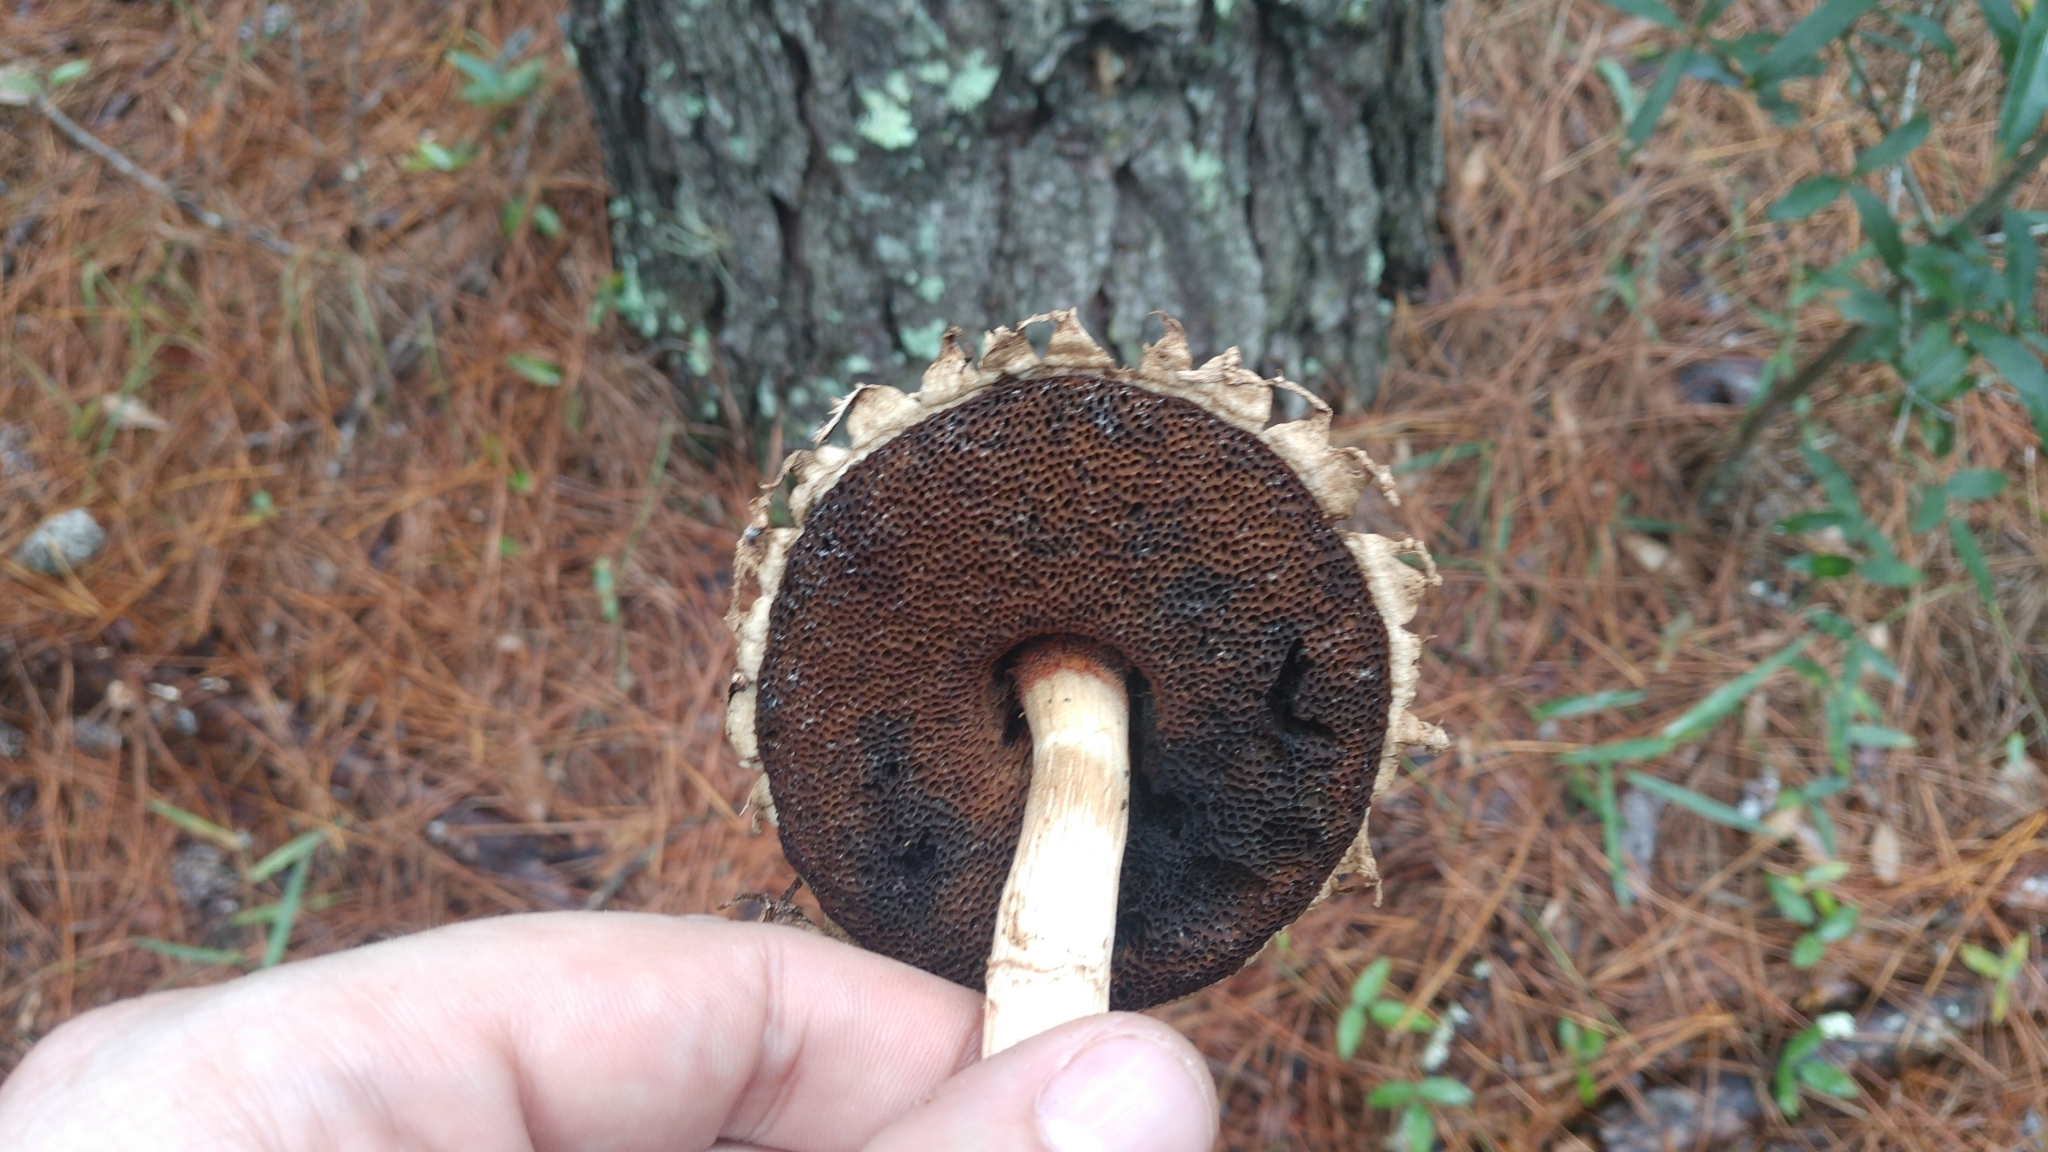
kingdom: Fungi
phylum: Basidiomycota
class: Agaricomycetes
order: Boletales
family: Boletaceae
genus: Boletellus
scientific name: Boletellus ananas
